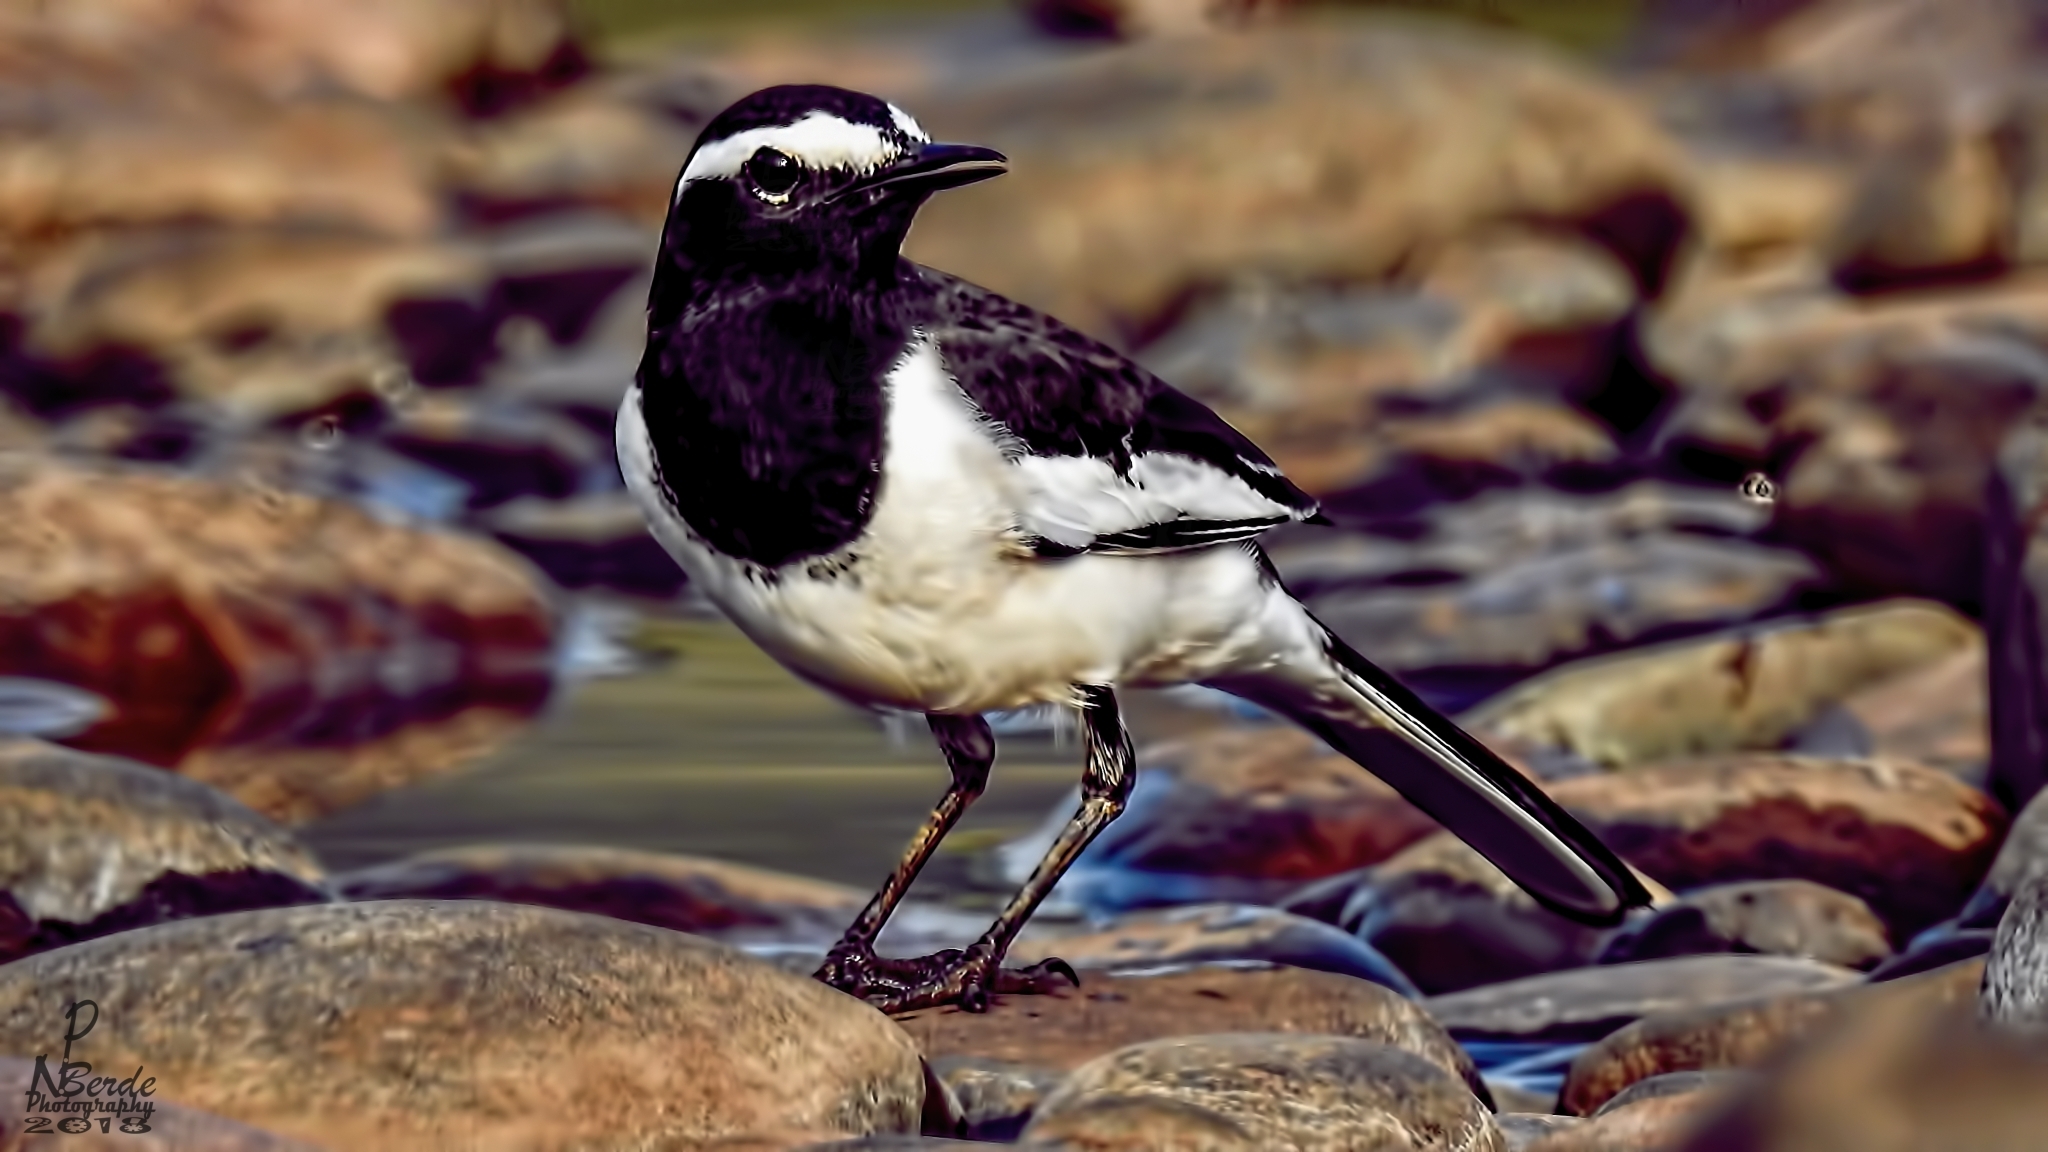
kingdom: Animalia
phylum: Chordata
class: Aves
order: Passeriformes
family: Motacillidae
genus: Motacilla
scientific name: Motacilla maderaspatensis
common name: White-browed wagtail
